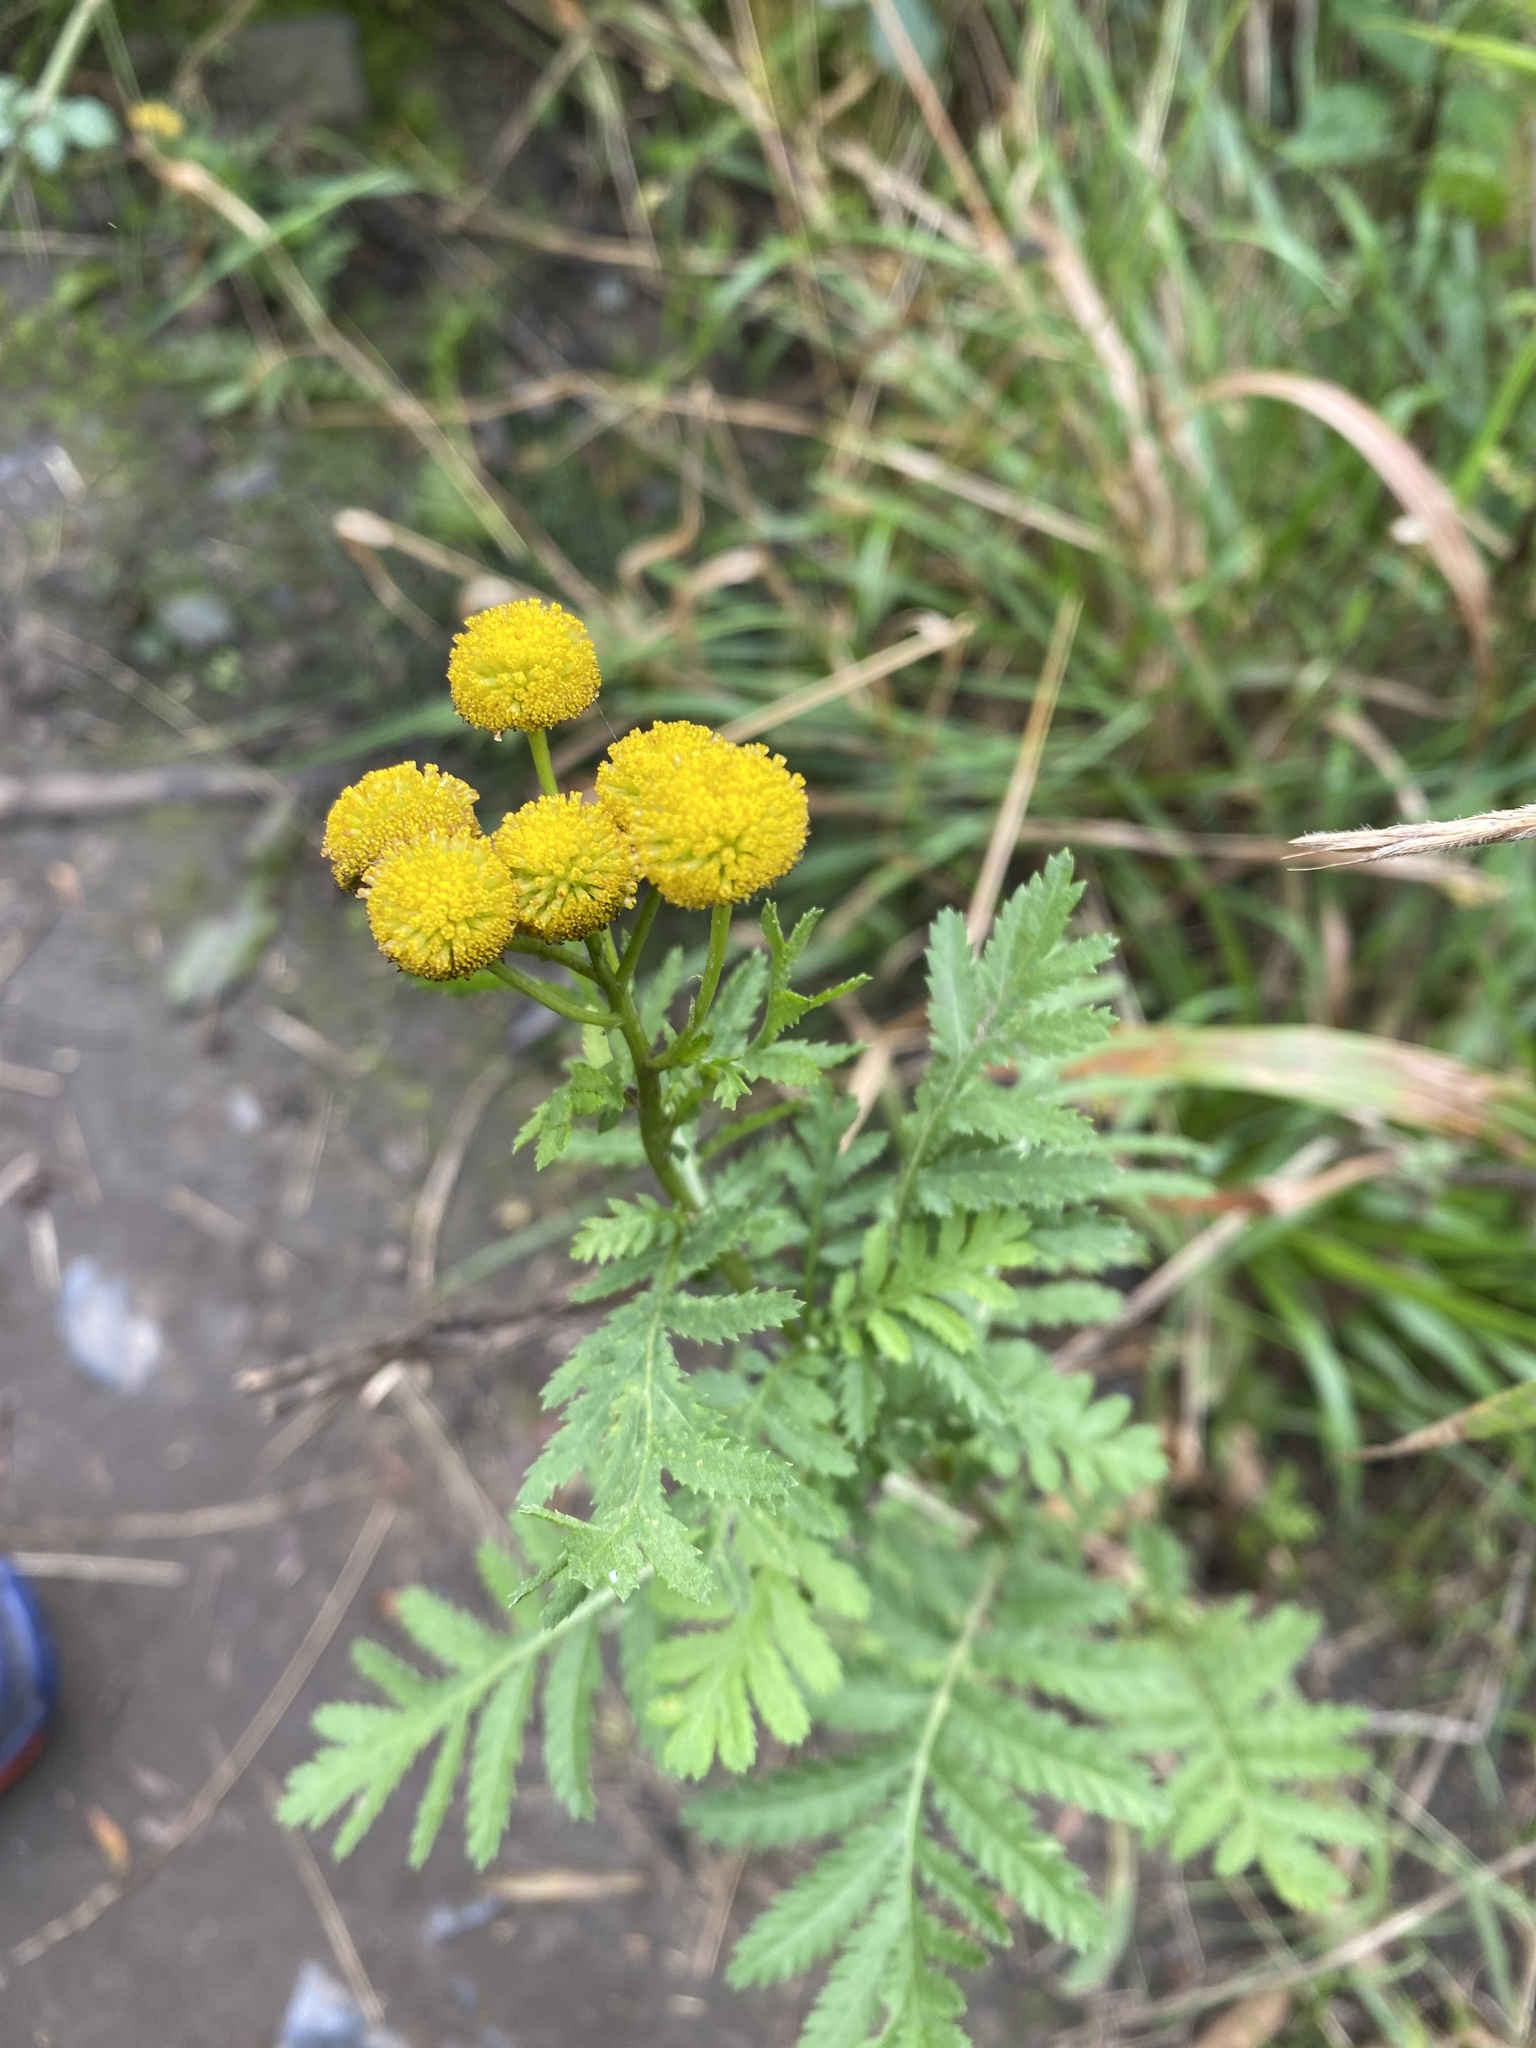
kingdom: Plantae
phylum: Tracheophyta
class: Magnoliopsida
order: Asterales
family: Asteraceae
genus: Tanacetum
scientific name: Tanacetum vulgare
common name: Common tansy
